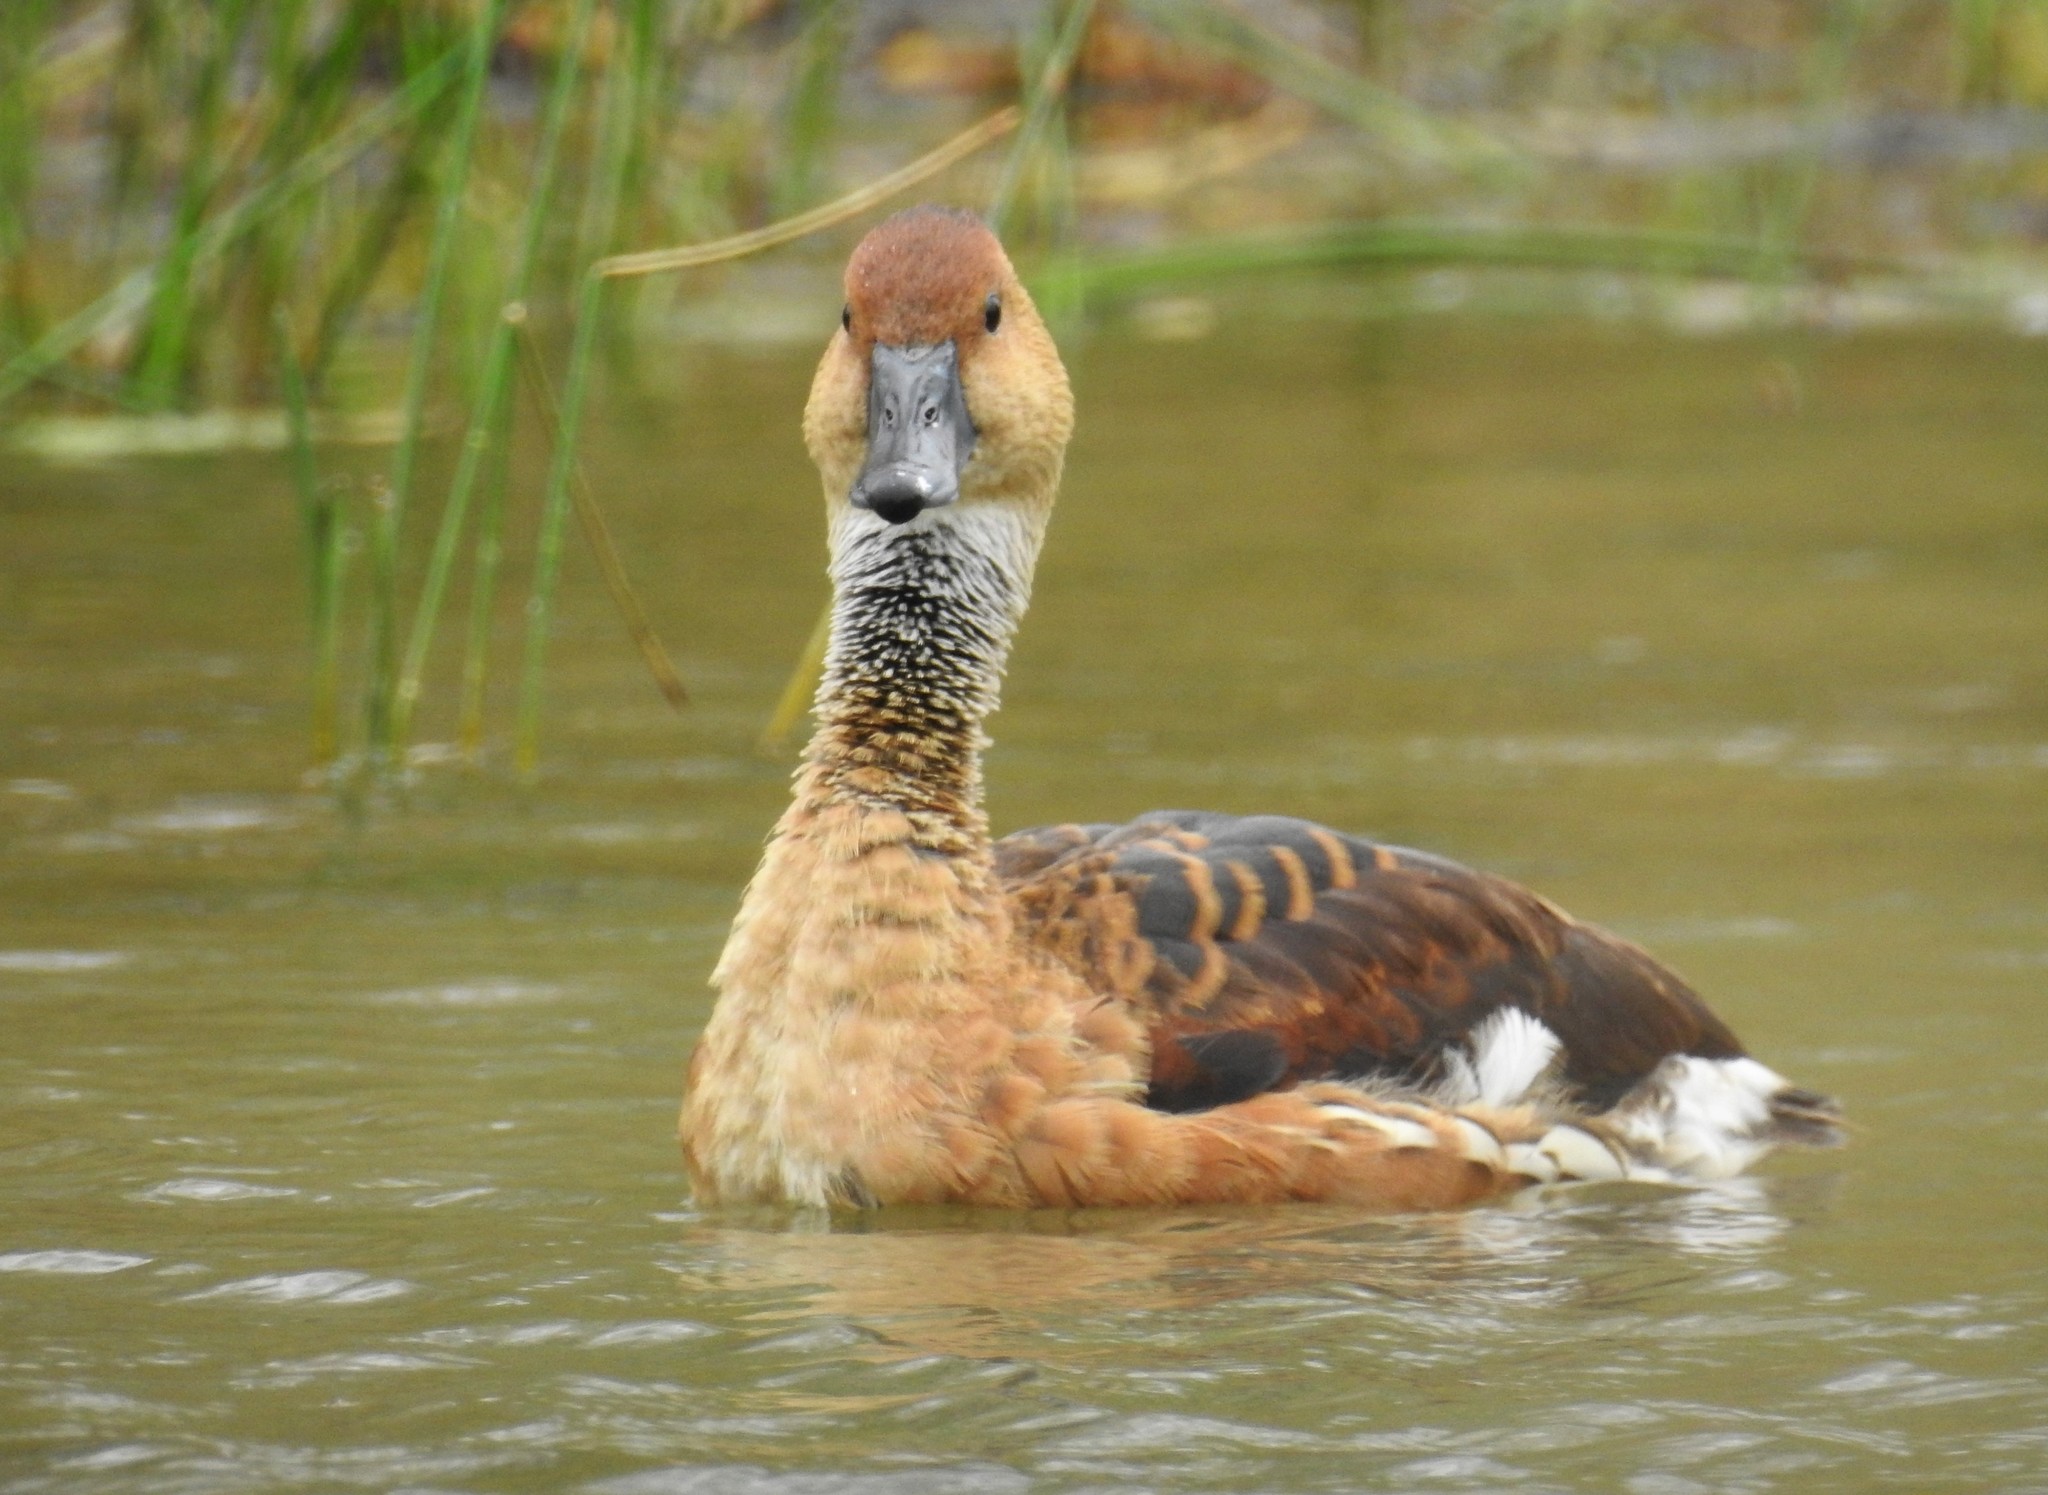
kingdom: Animalia
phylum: Chordata
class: Aves
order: Anseriformes
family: Anatidae
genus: Dendrocygna
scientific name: Dendrocygna bicolor
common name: Fulvous whistling duck
